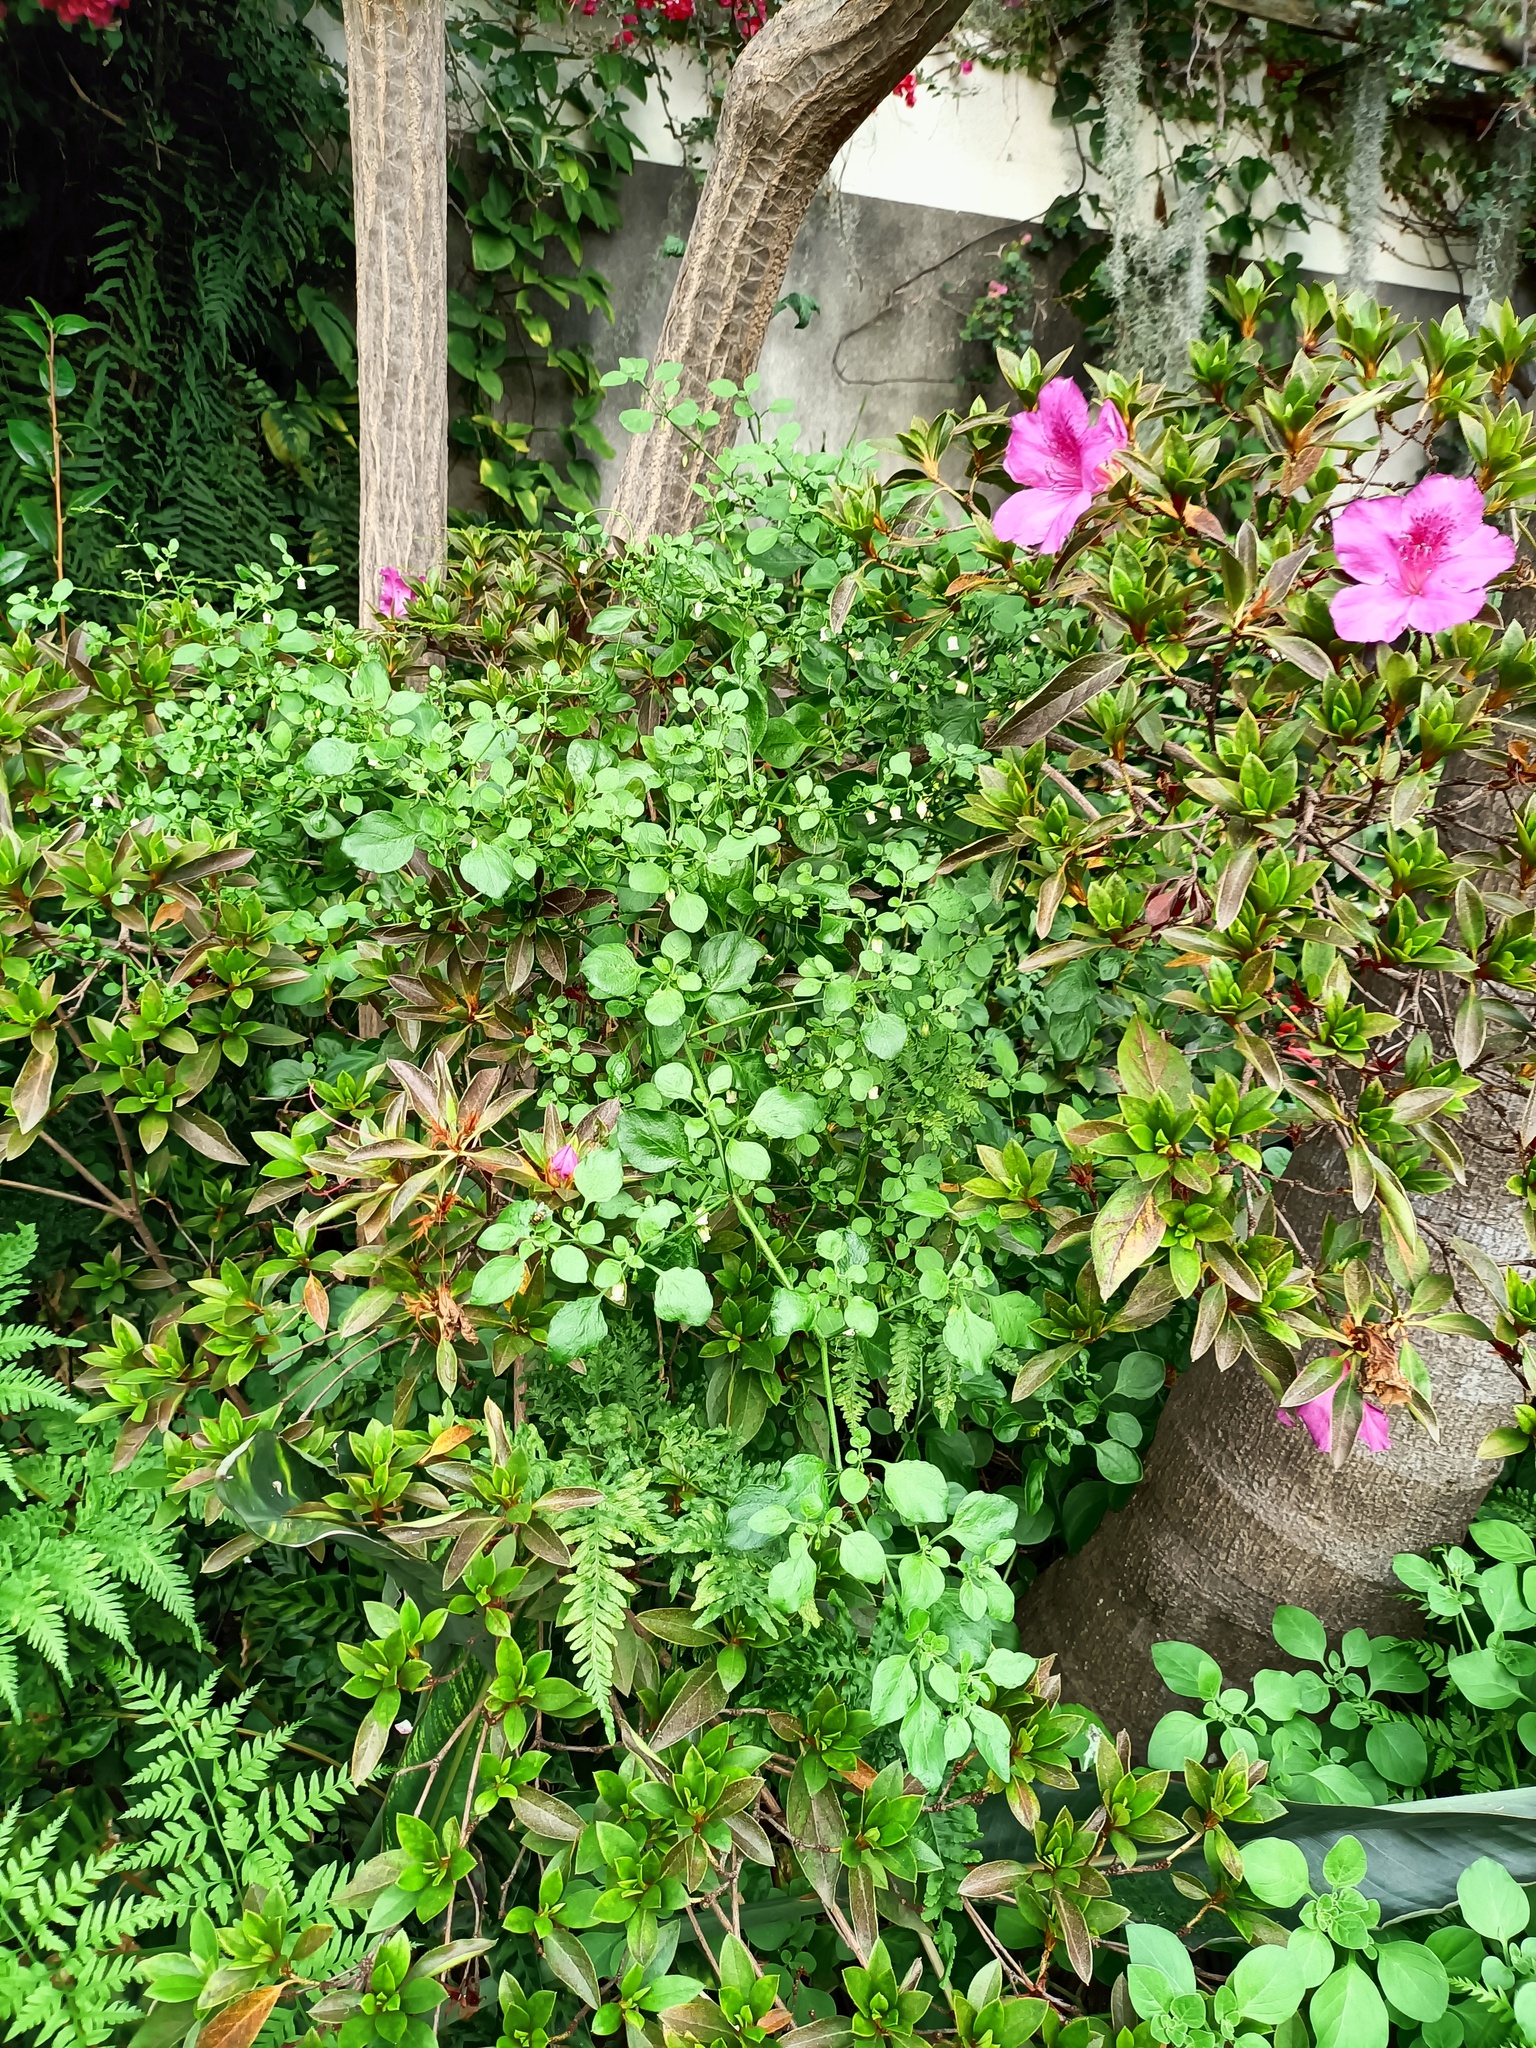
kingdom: Plantae
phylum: Tracheophyta
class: Magnoliopsida
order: Solanales
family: Solanaceae
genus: Salpichroa
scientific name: Salpichroa origanifolia
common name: Lily-of-the-valley-vine
